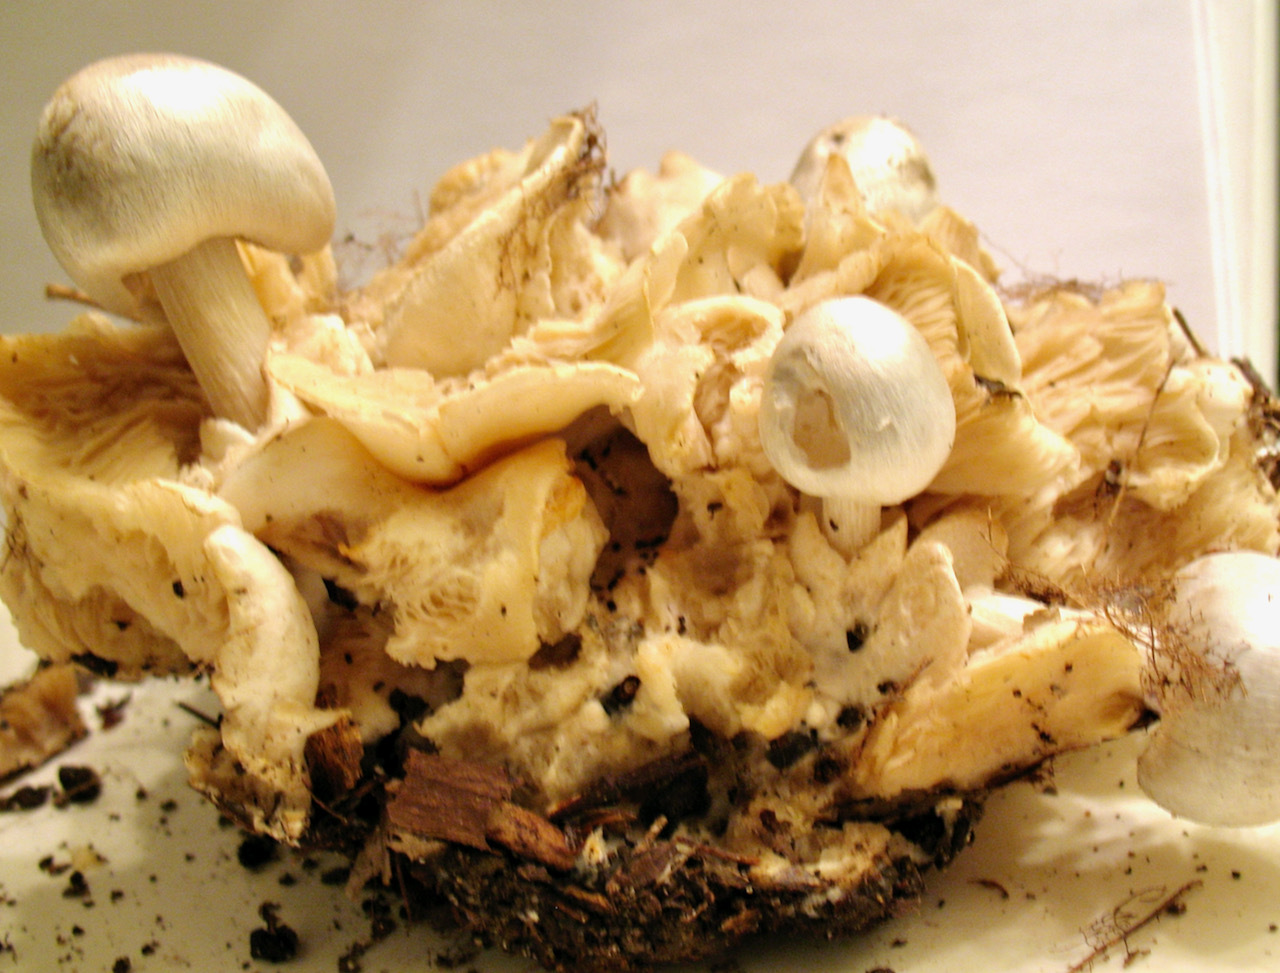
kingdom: Fungi
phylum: Basidiomycota
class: Agaricomycetes
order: Agaricales
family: Pluteaceae
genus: Volvariella
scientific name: Volvariella surrecta
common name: Piggyback rosegill
